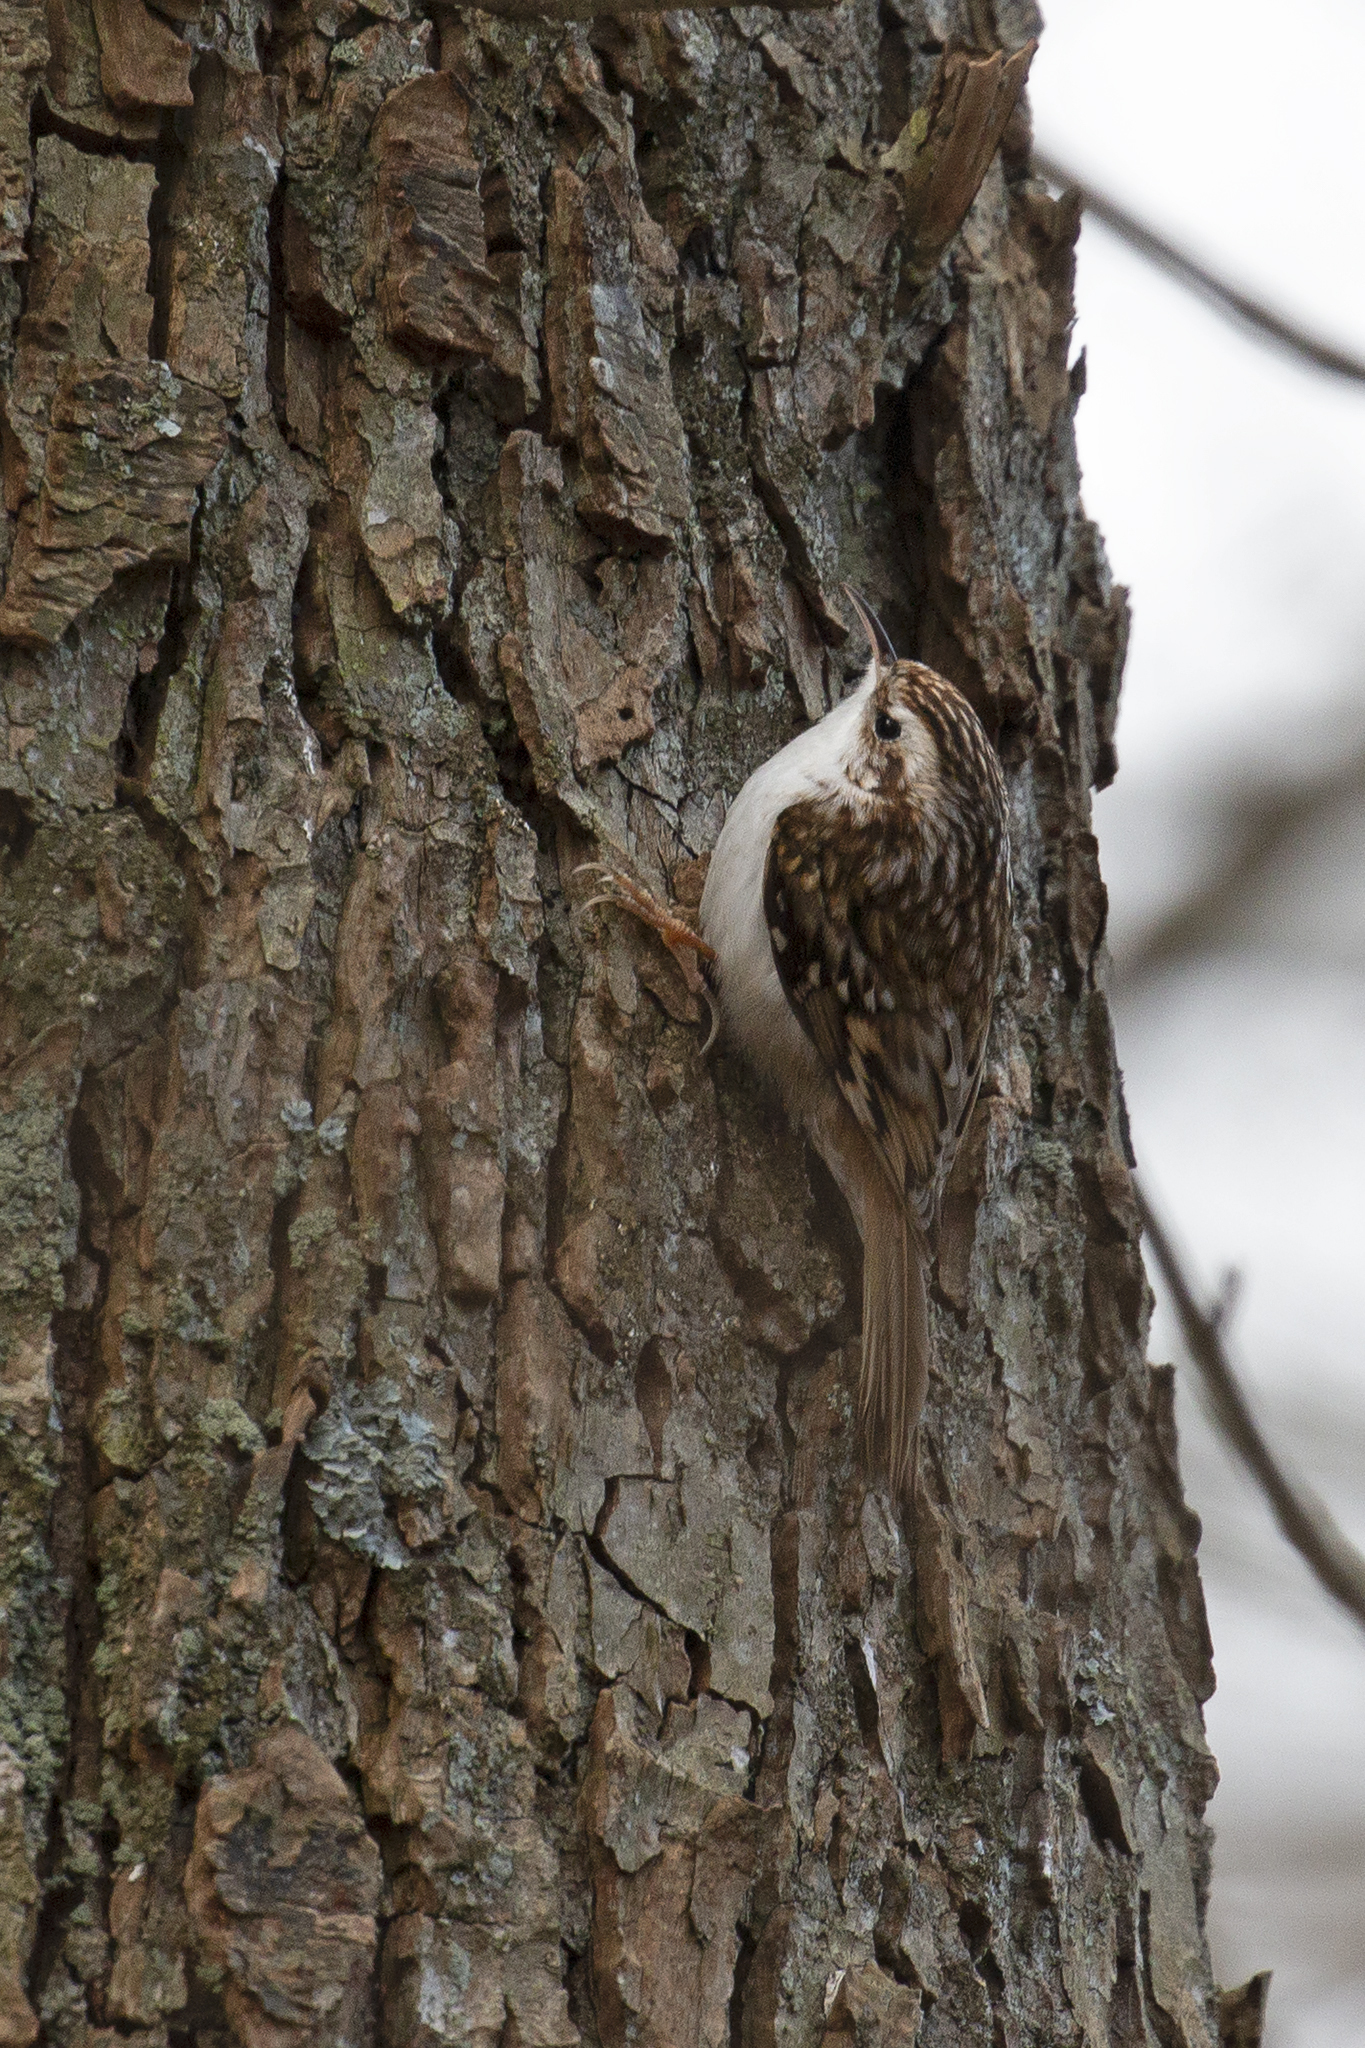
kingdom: Animalia
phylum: Chordata
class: Aves
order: Passeriformes
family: Certhiidae
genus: Certhia
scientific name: Certhia familiaris
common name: Eurasian treecreeper
